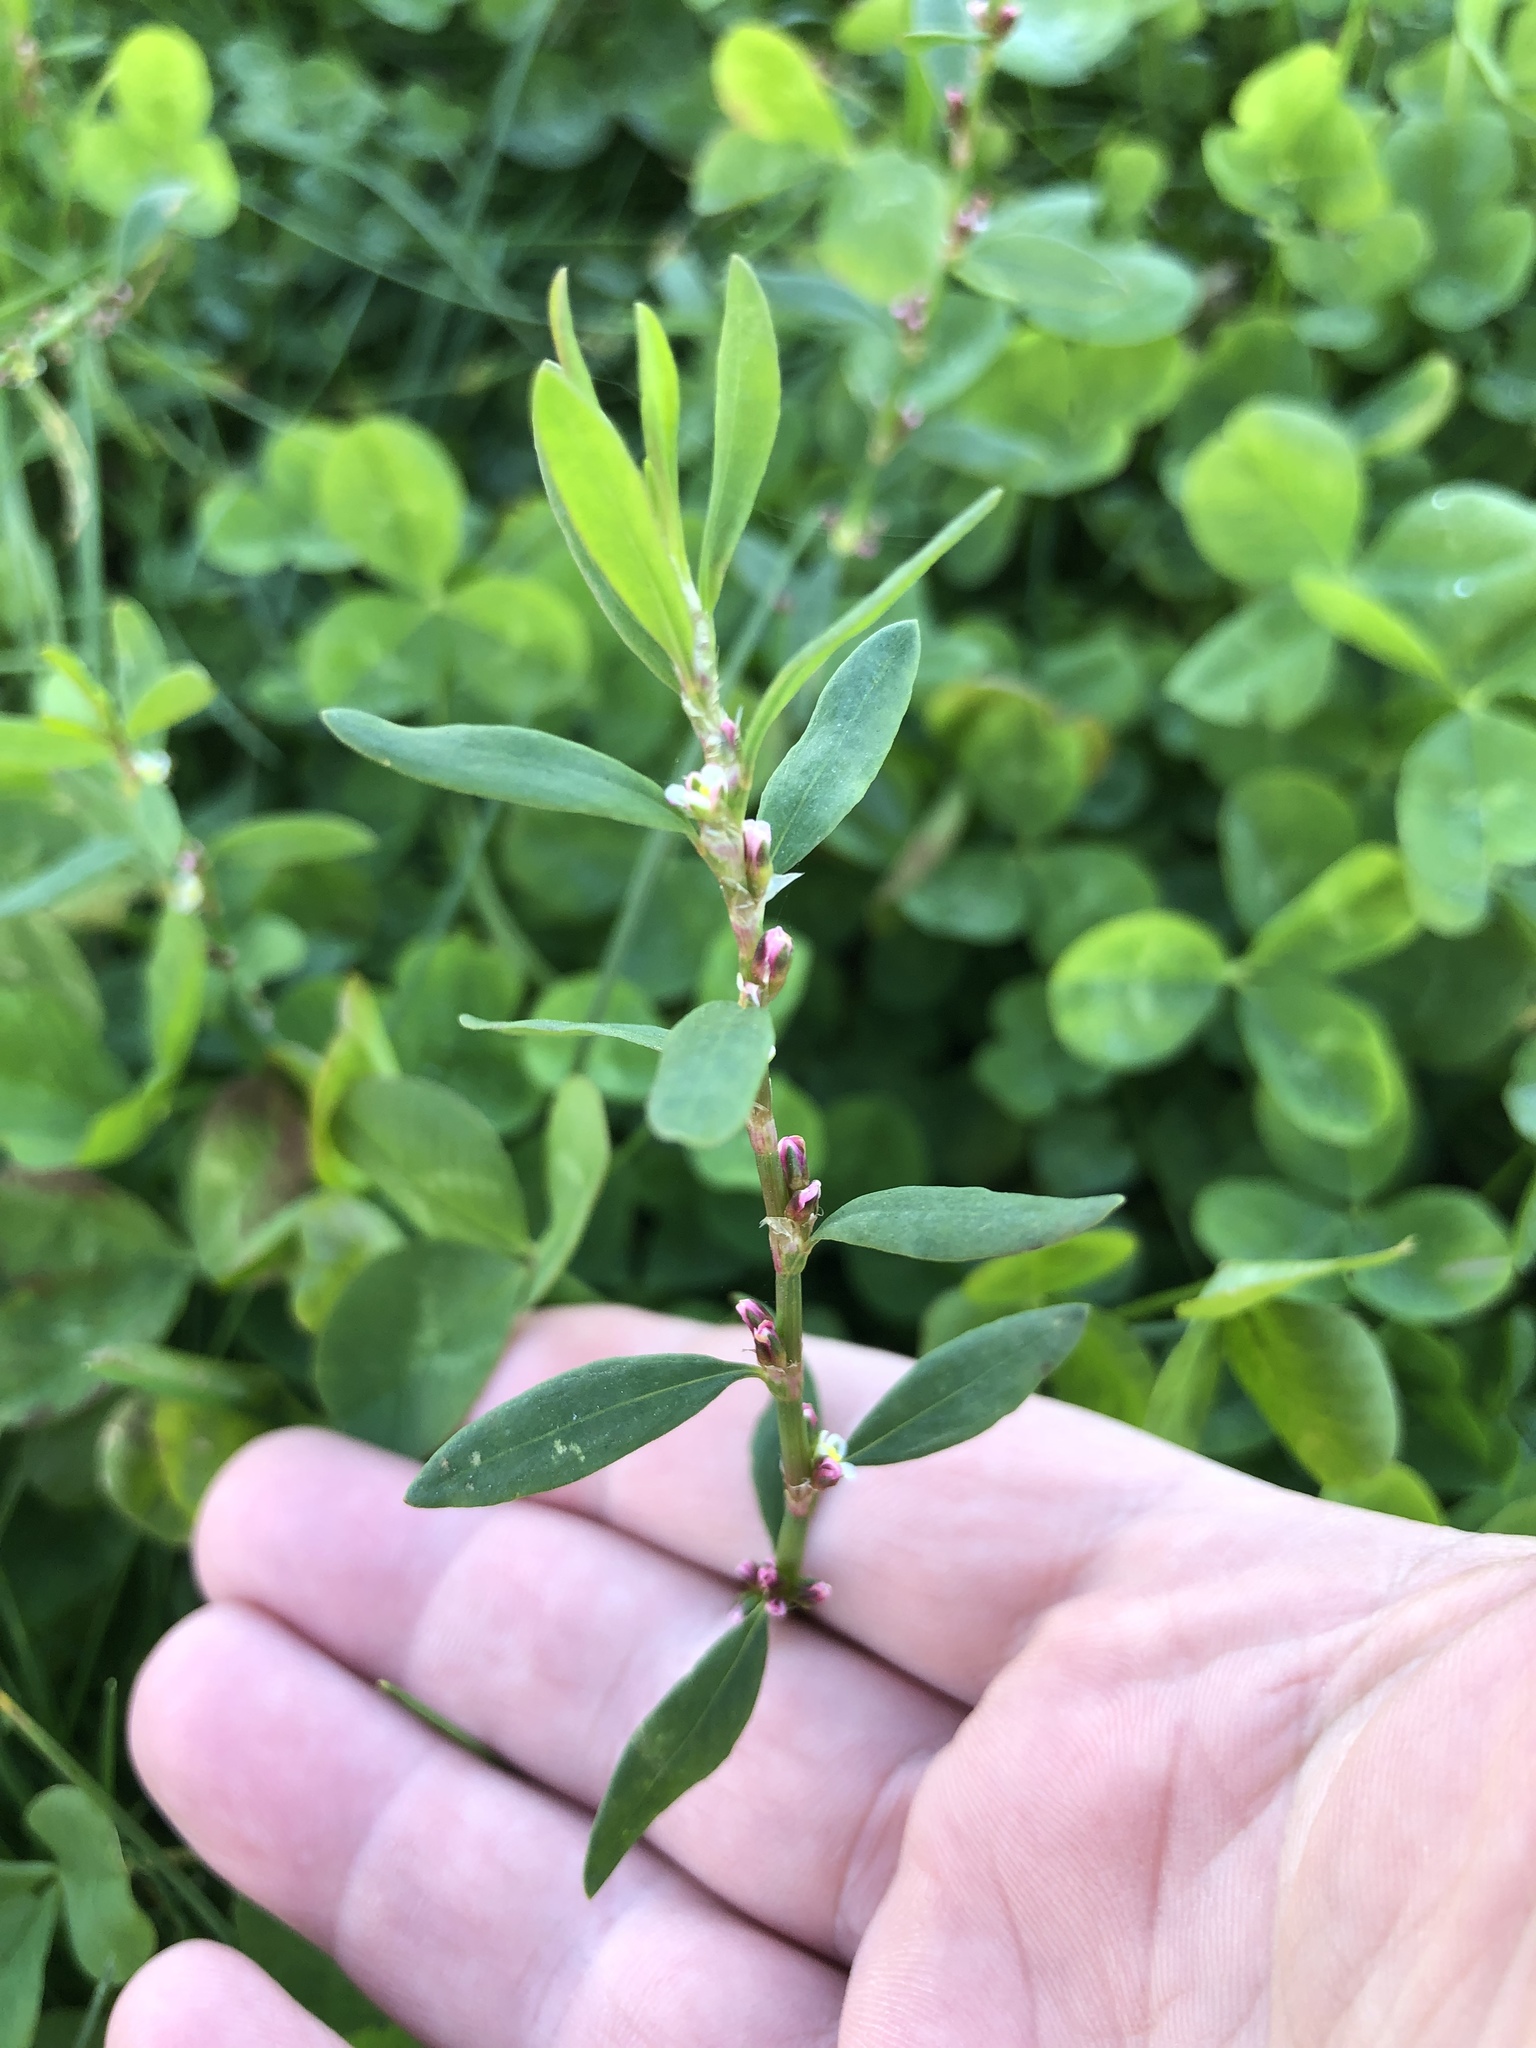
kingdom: Plantae
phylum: Tracheophyta
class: Magnoliopsida
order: Caryophyllales
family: Polygonaceae
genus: Polygonum
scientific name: Polygonum aviculare
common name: Prostrate knotweed
